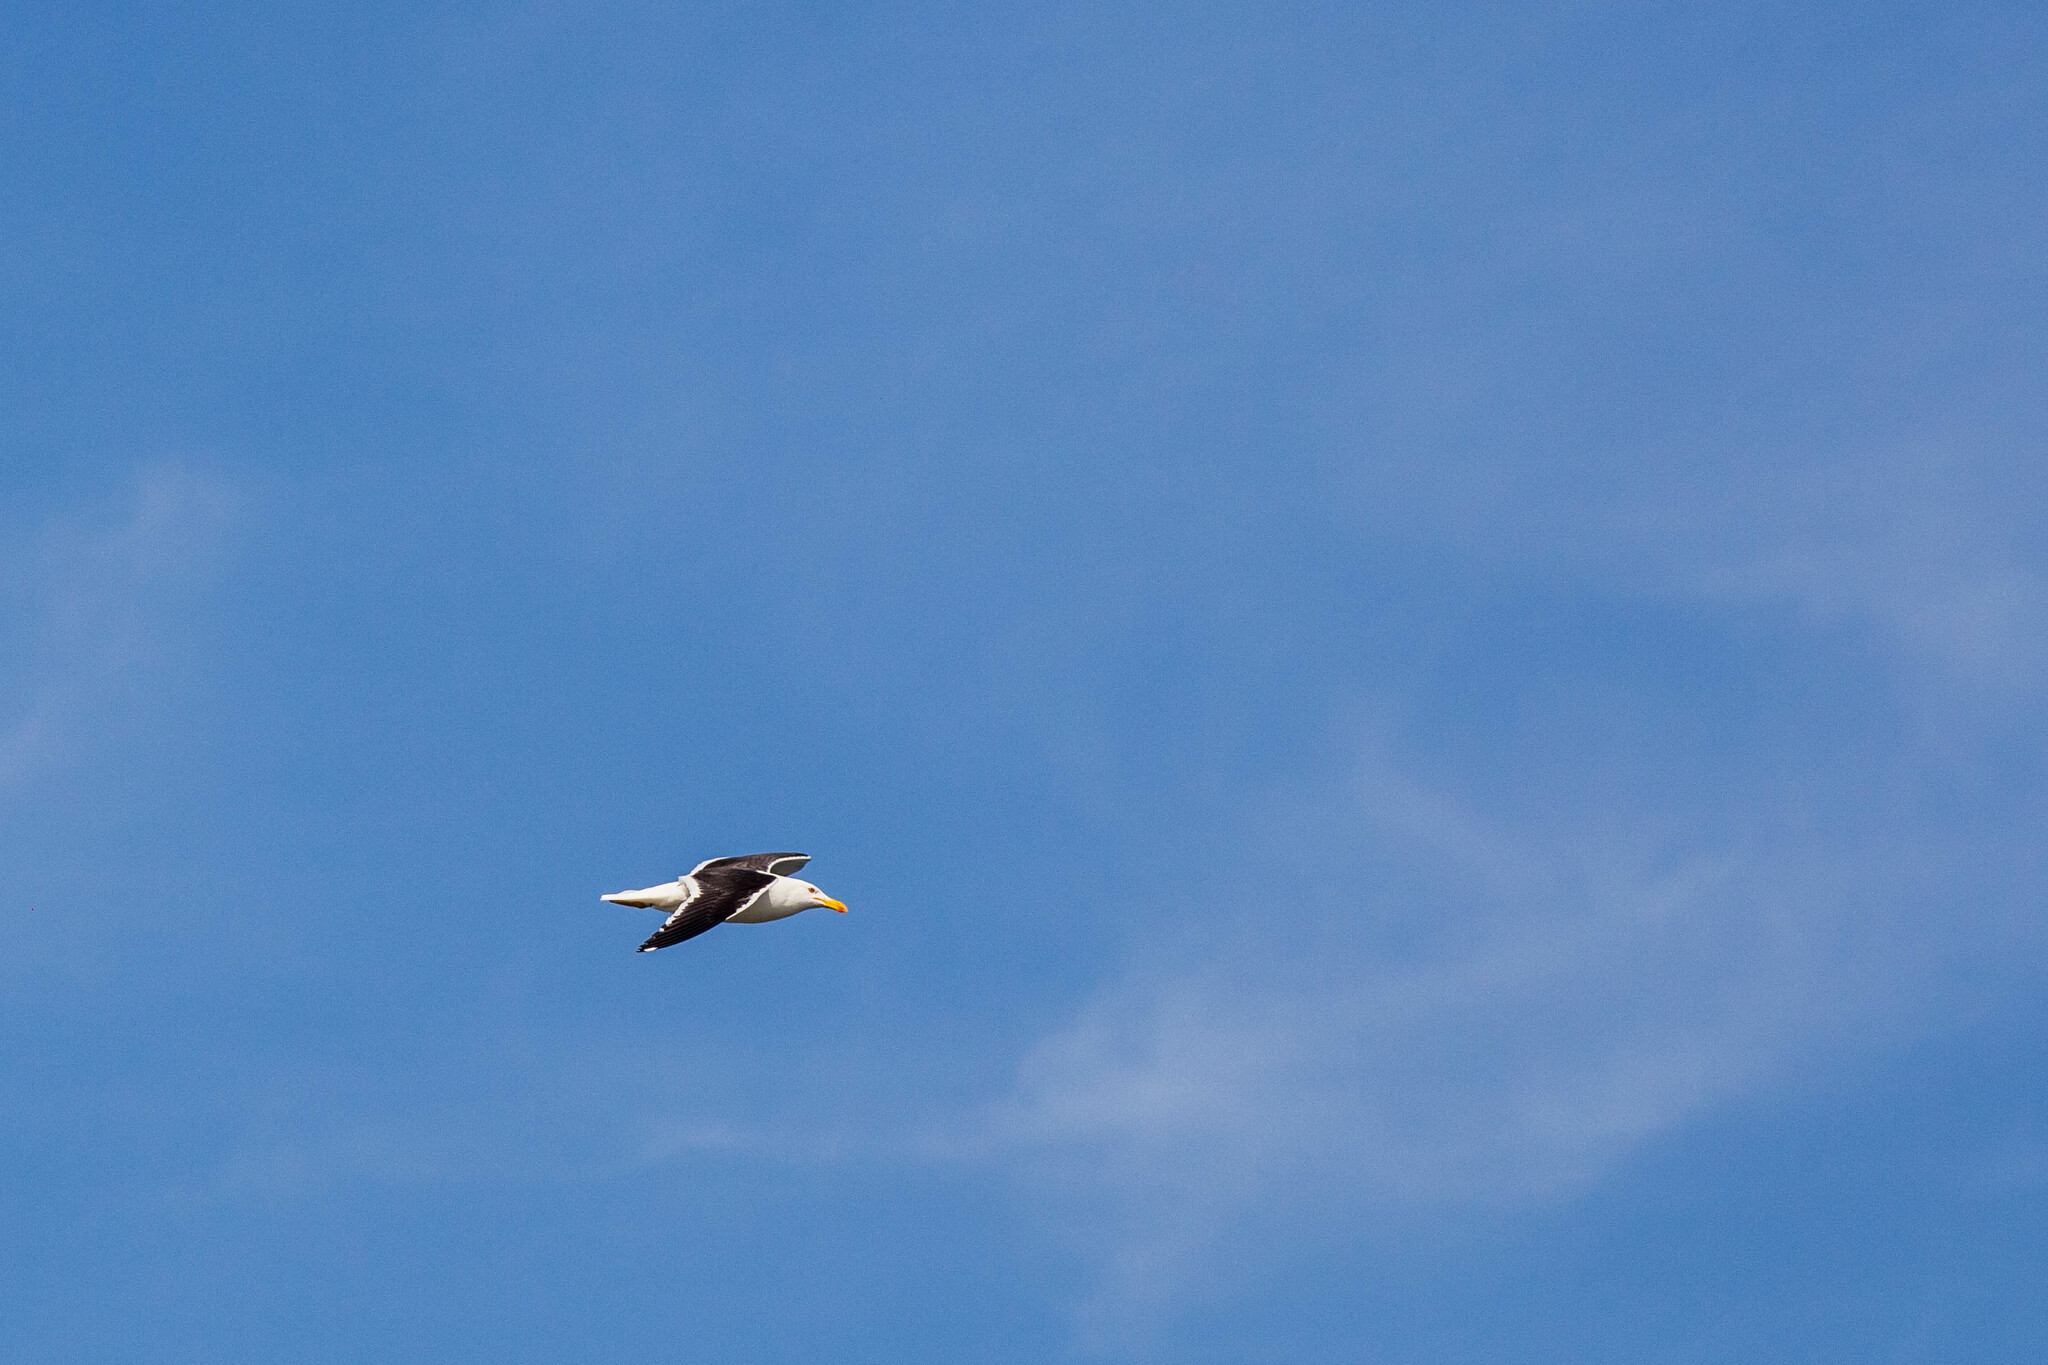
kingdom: Animalia
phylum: Chordata
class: Aves
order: Charadriiformes
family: Laridae
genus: Larus
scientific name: Larus dominicanus
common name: Kelp gull
